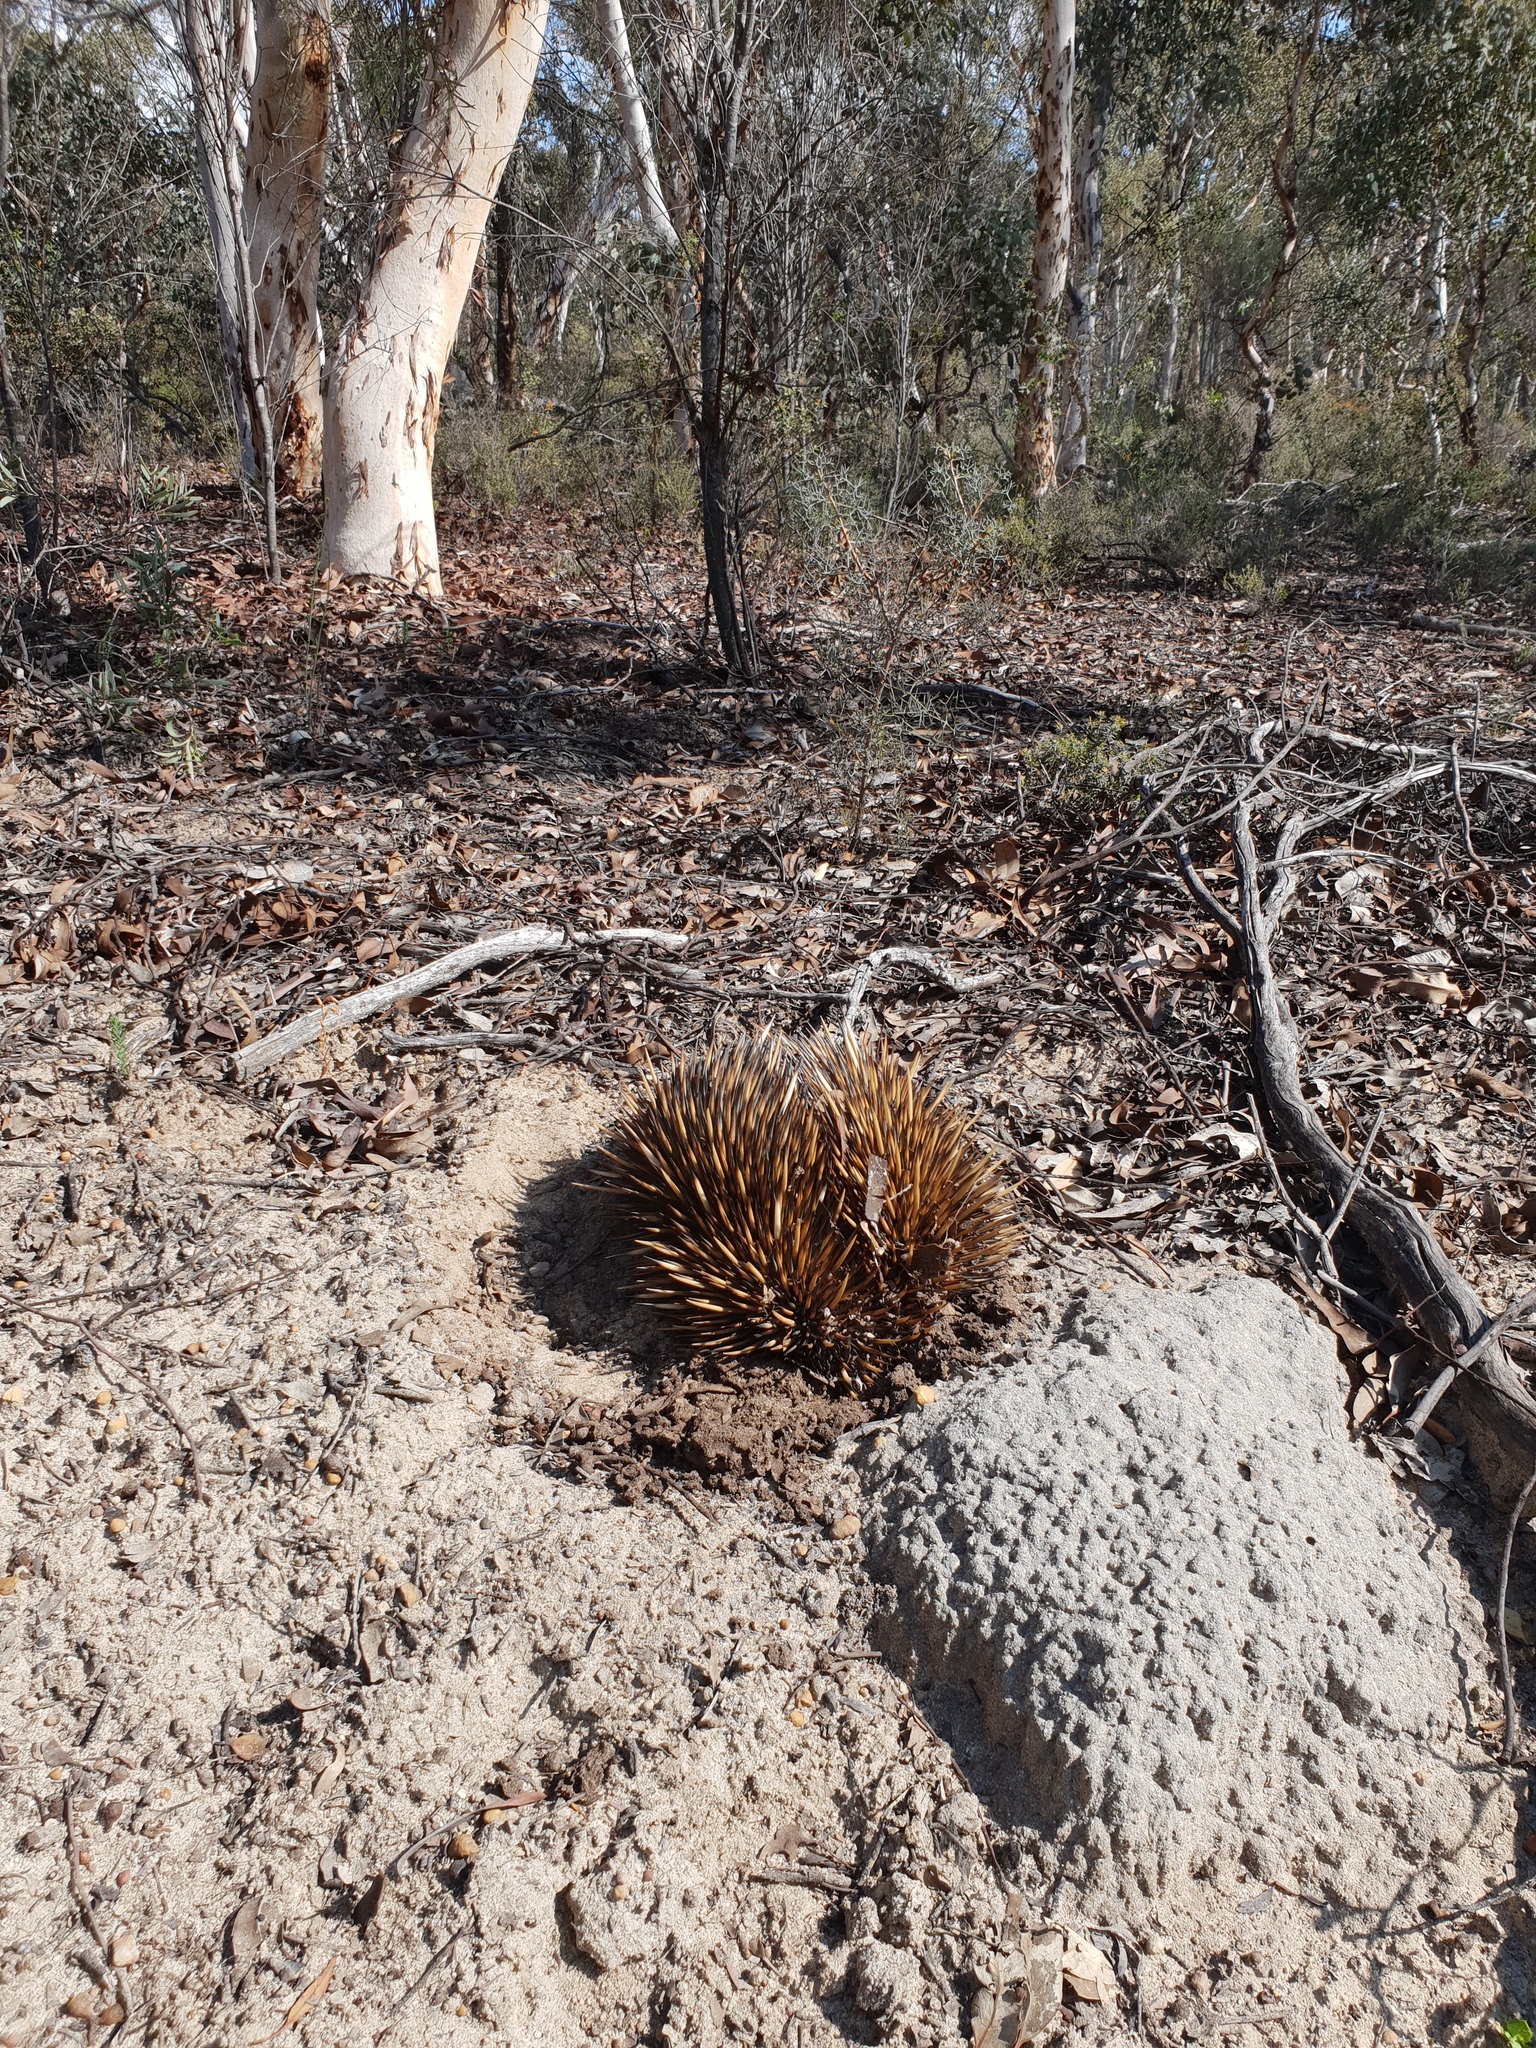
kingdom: Animalia
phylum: Chordata
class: Mammalia
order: Monotremata
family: Tachyglossidae
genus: Tachyglossus
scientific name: Tachyglossus aculeatus
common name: Short-beaked echidna
